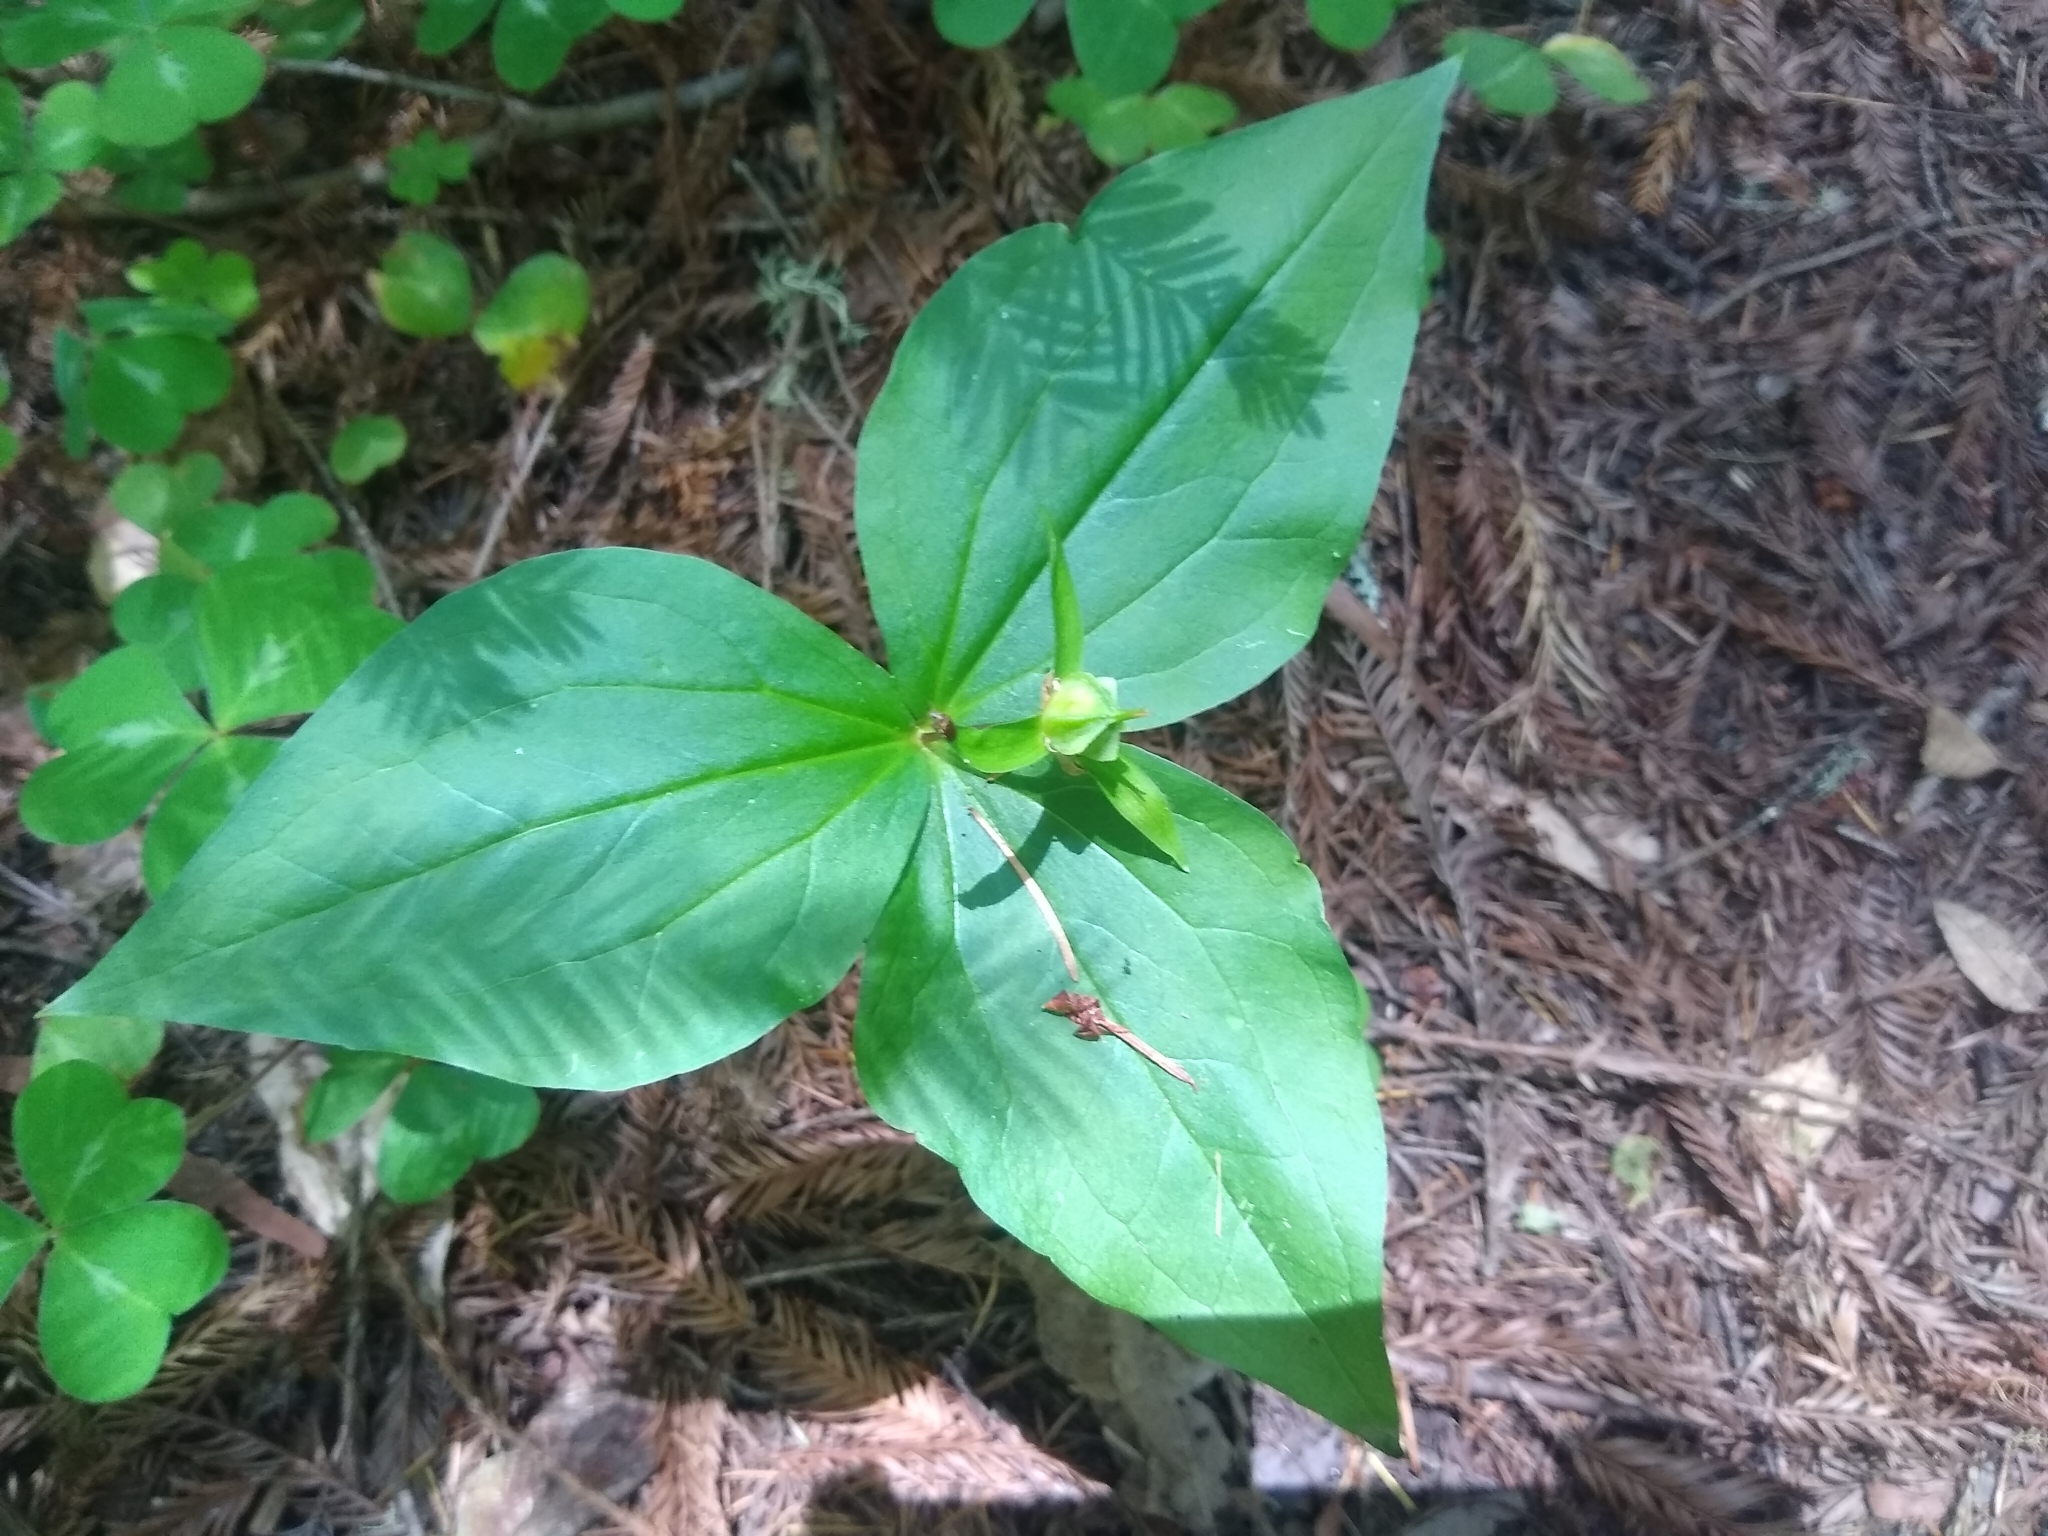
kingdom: Plantae
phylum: Tracheophyta
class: Liliopsida
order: Liliales
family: Melanthiaceae
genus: Trillium
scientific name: Trillium ovatum
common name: Pacific trillium
